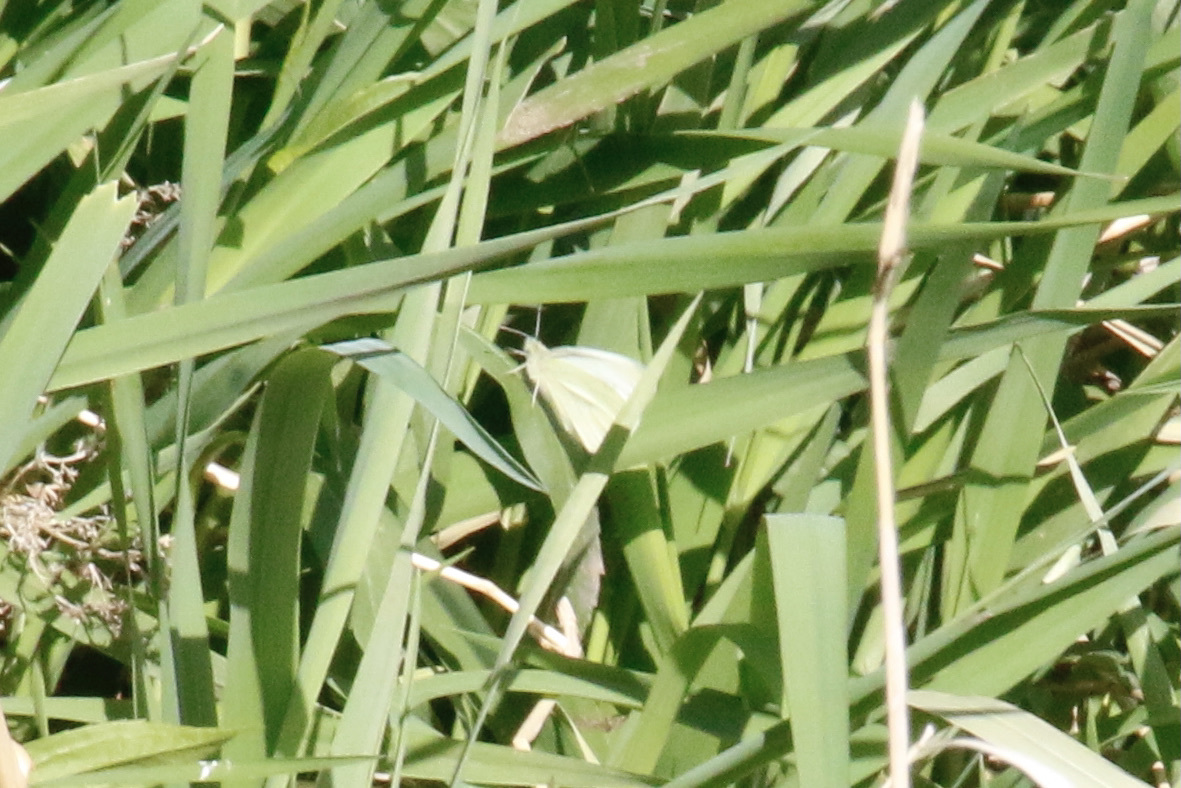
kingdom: Animalia
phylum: Arthropoda
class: Insecta
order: Lepidoptera
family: Pieridae
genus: Pieris
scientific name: Pieris rapae
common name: Small white
